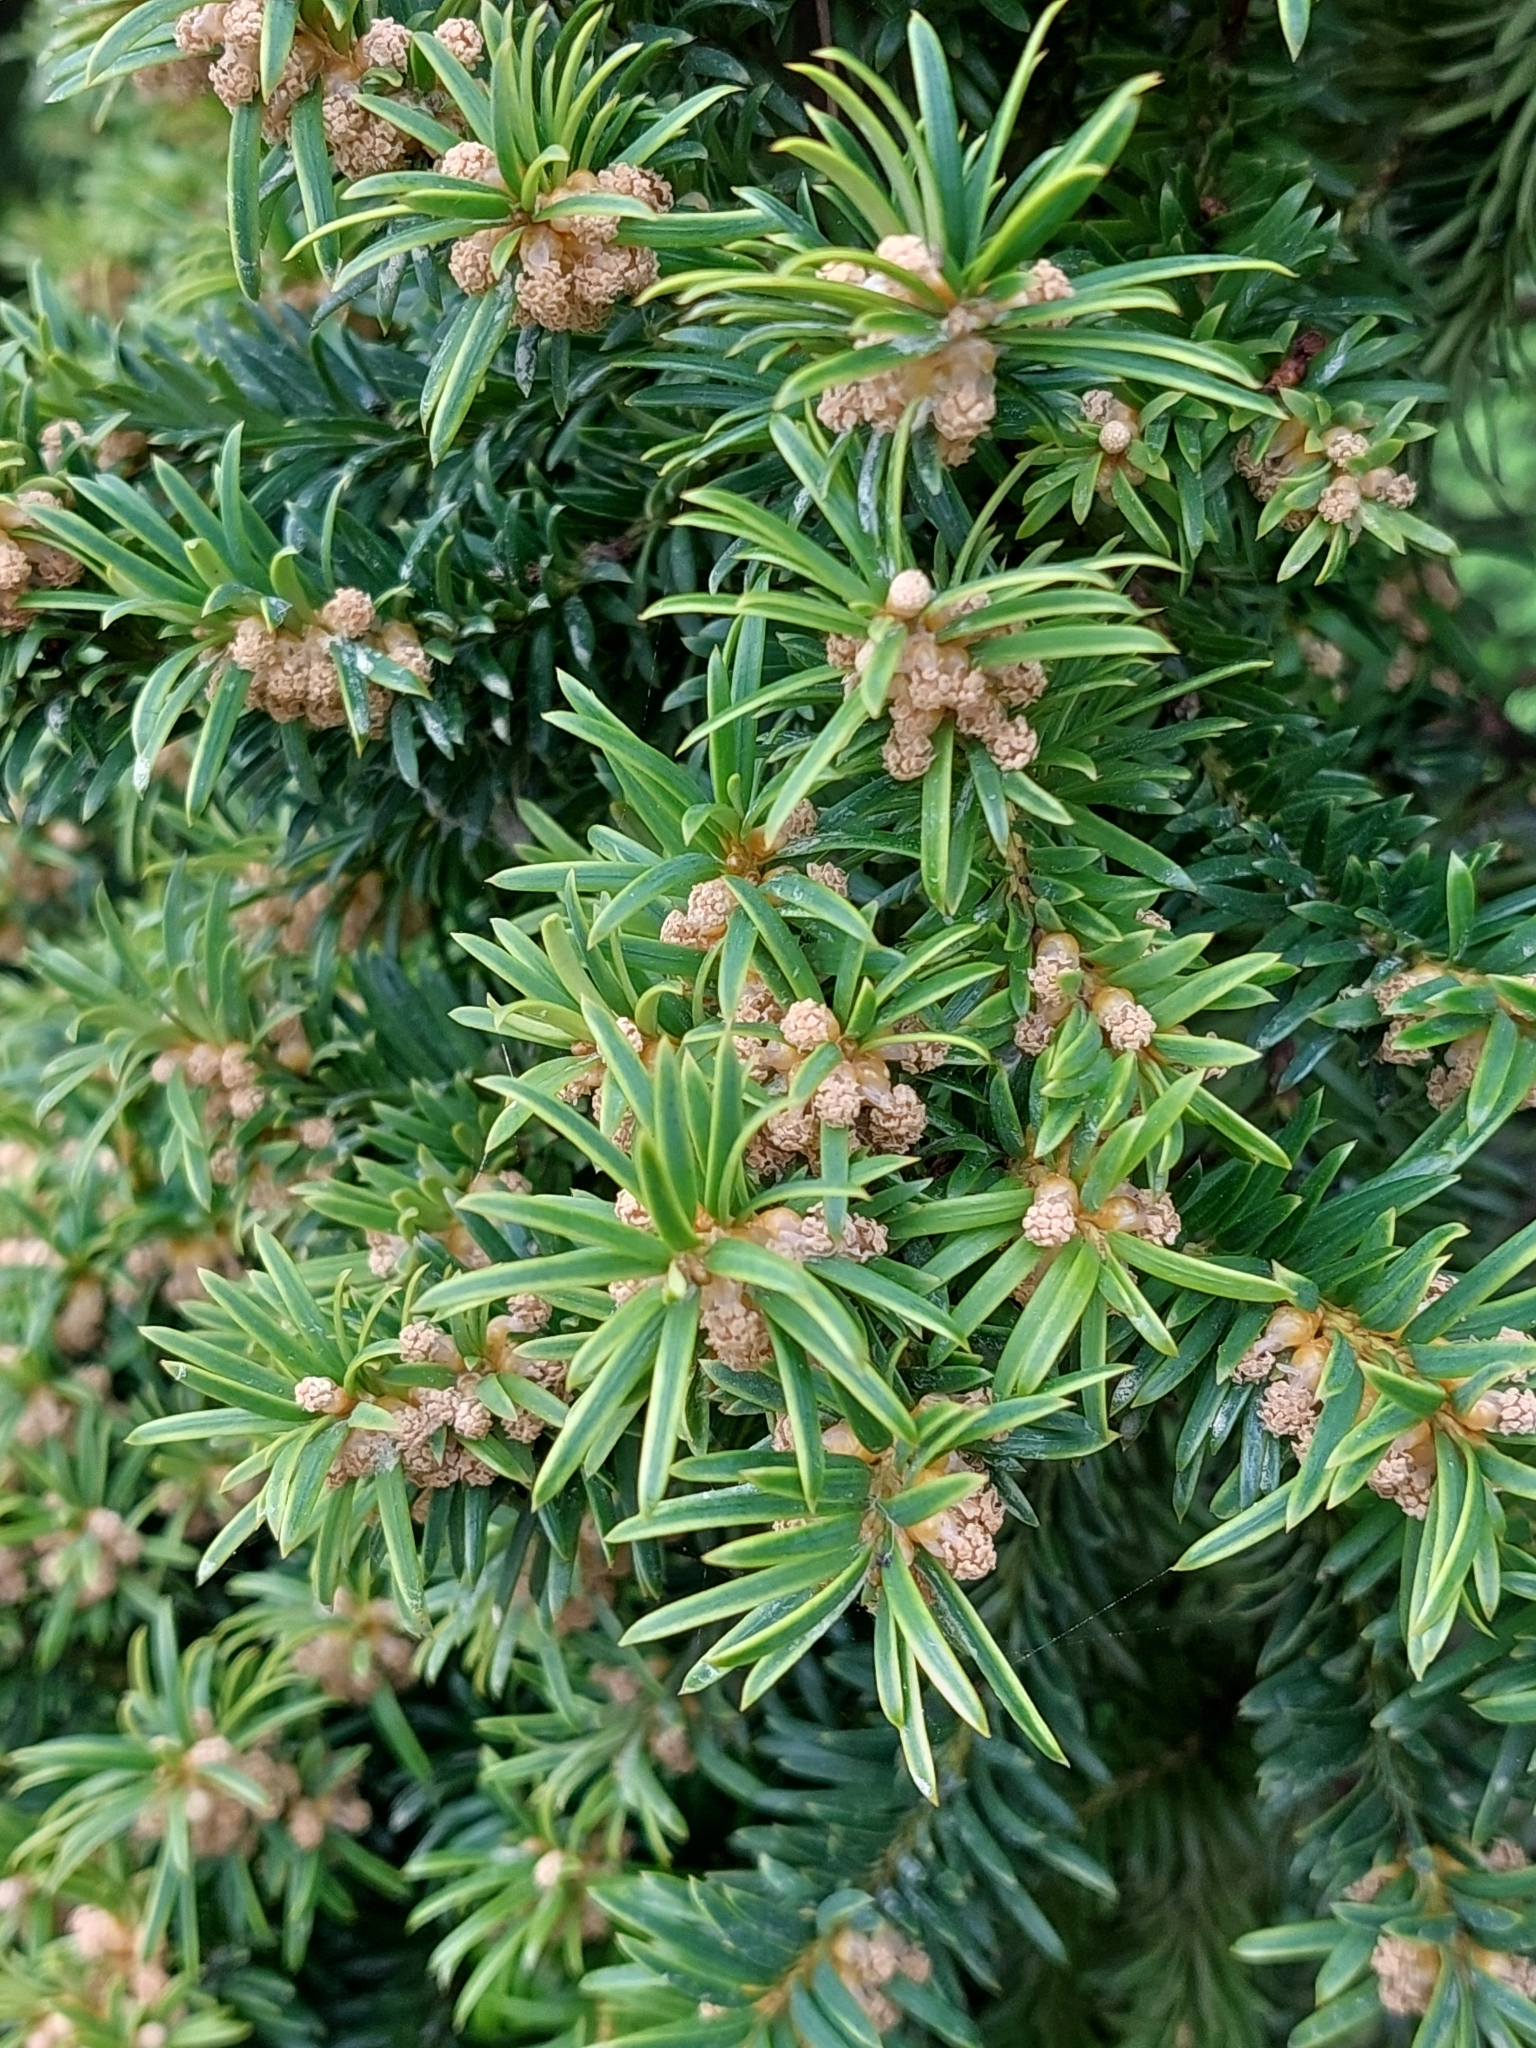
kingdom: Plantae
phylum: Tracheophyta
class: Pinopsida
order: Pinales
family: Taxaceae
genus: Taxus
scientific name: Taxus baccata
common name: Yew
